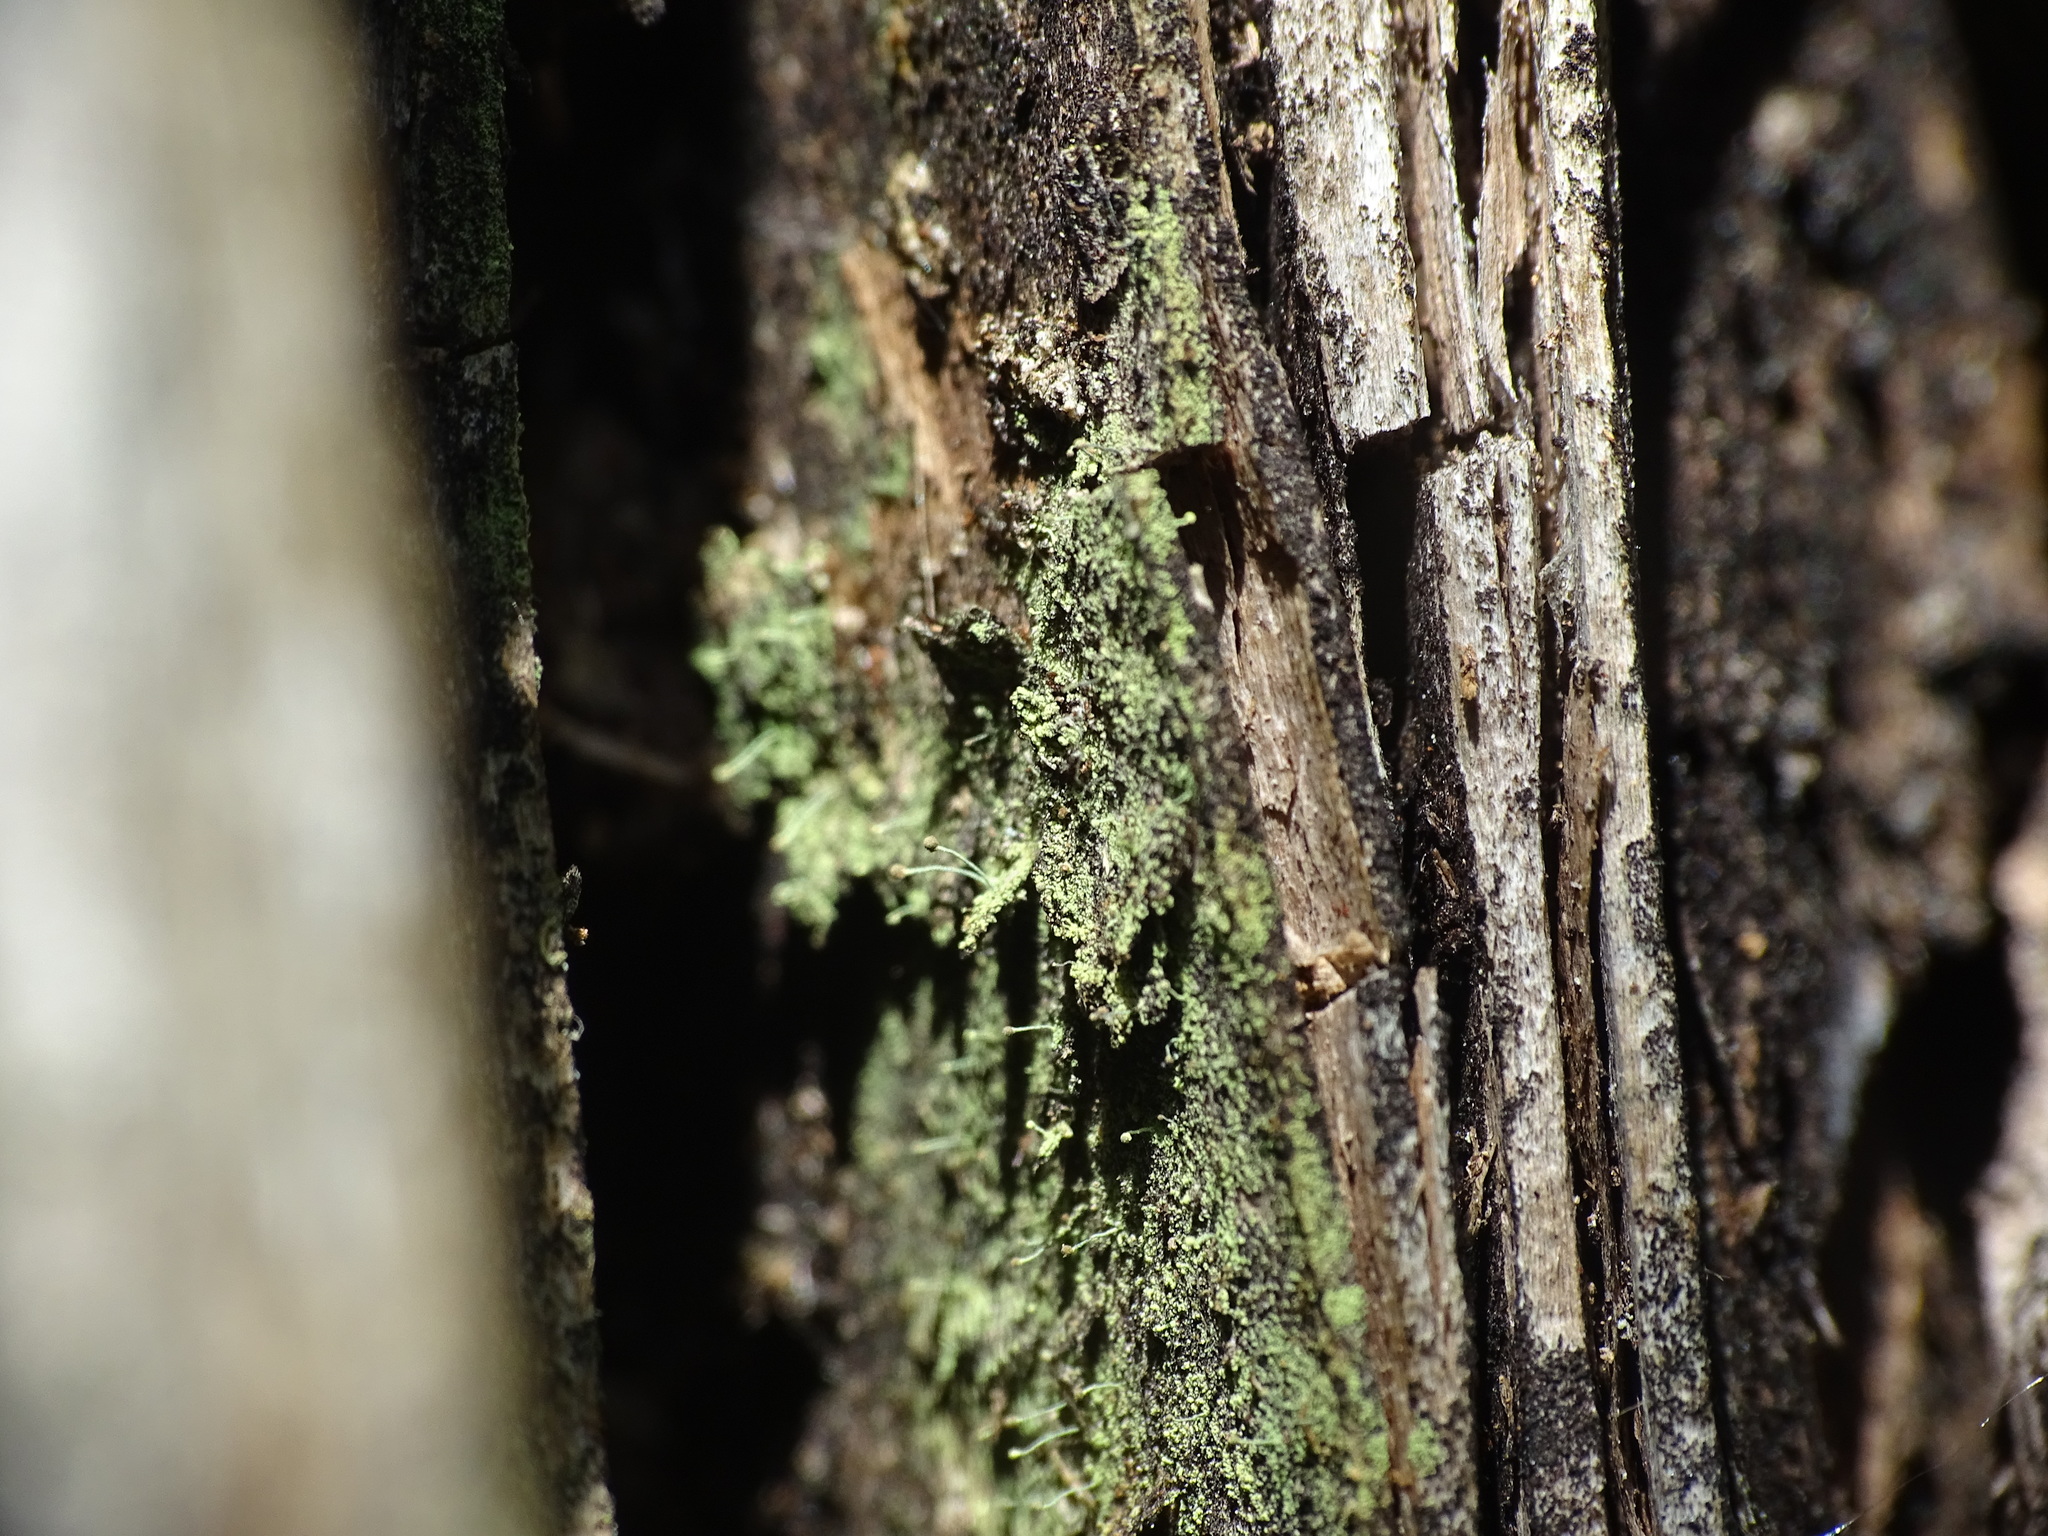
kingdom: Fungi
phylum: Ascomycota
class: Coniocybomycetes
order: Coniocybales
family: Coniocybaceae
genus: Chaenotheca
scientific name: Chaenotheca furfuracea
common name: Sulphur stubble lichen
